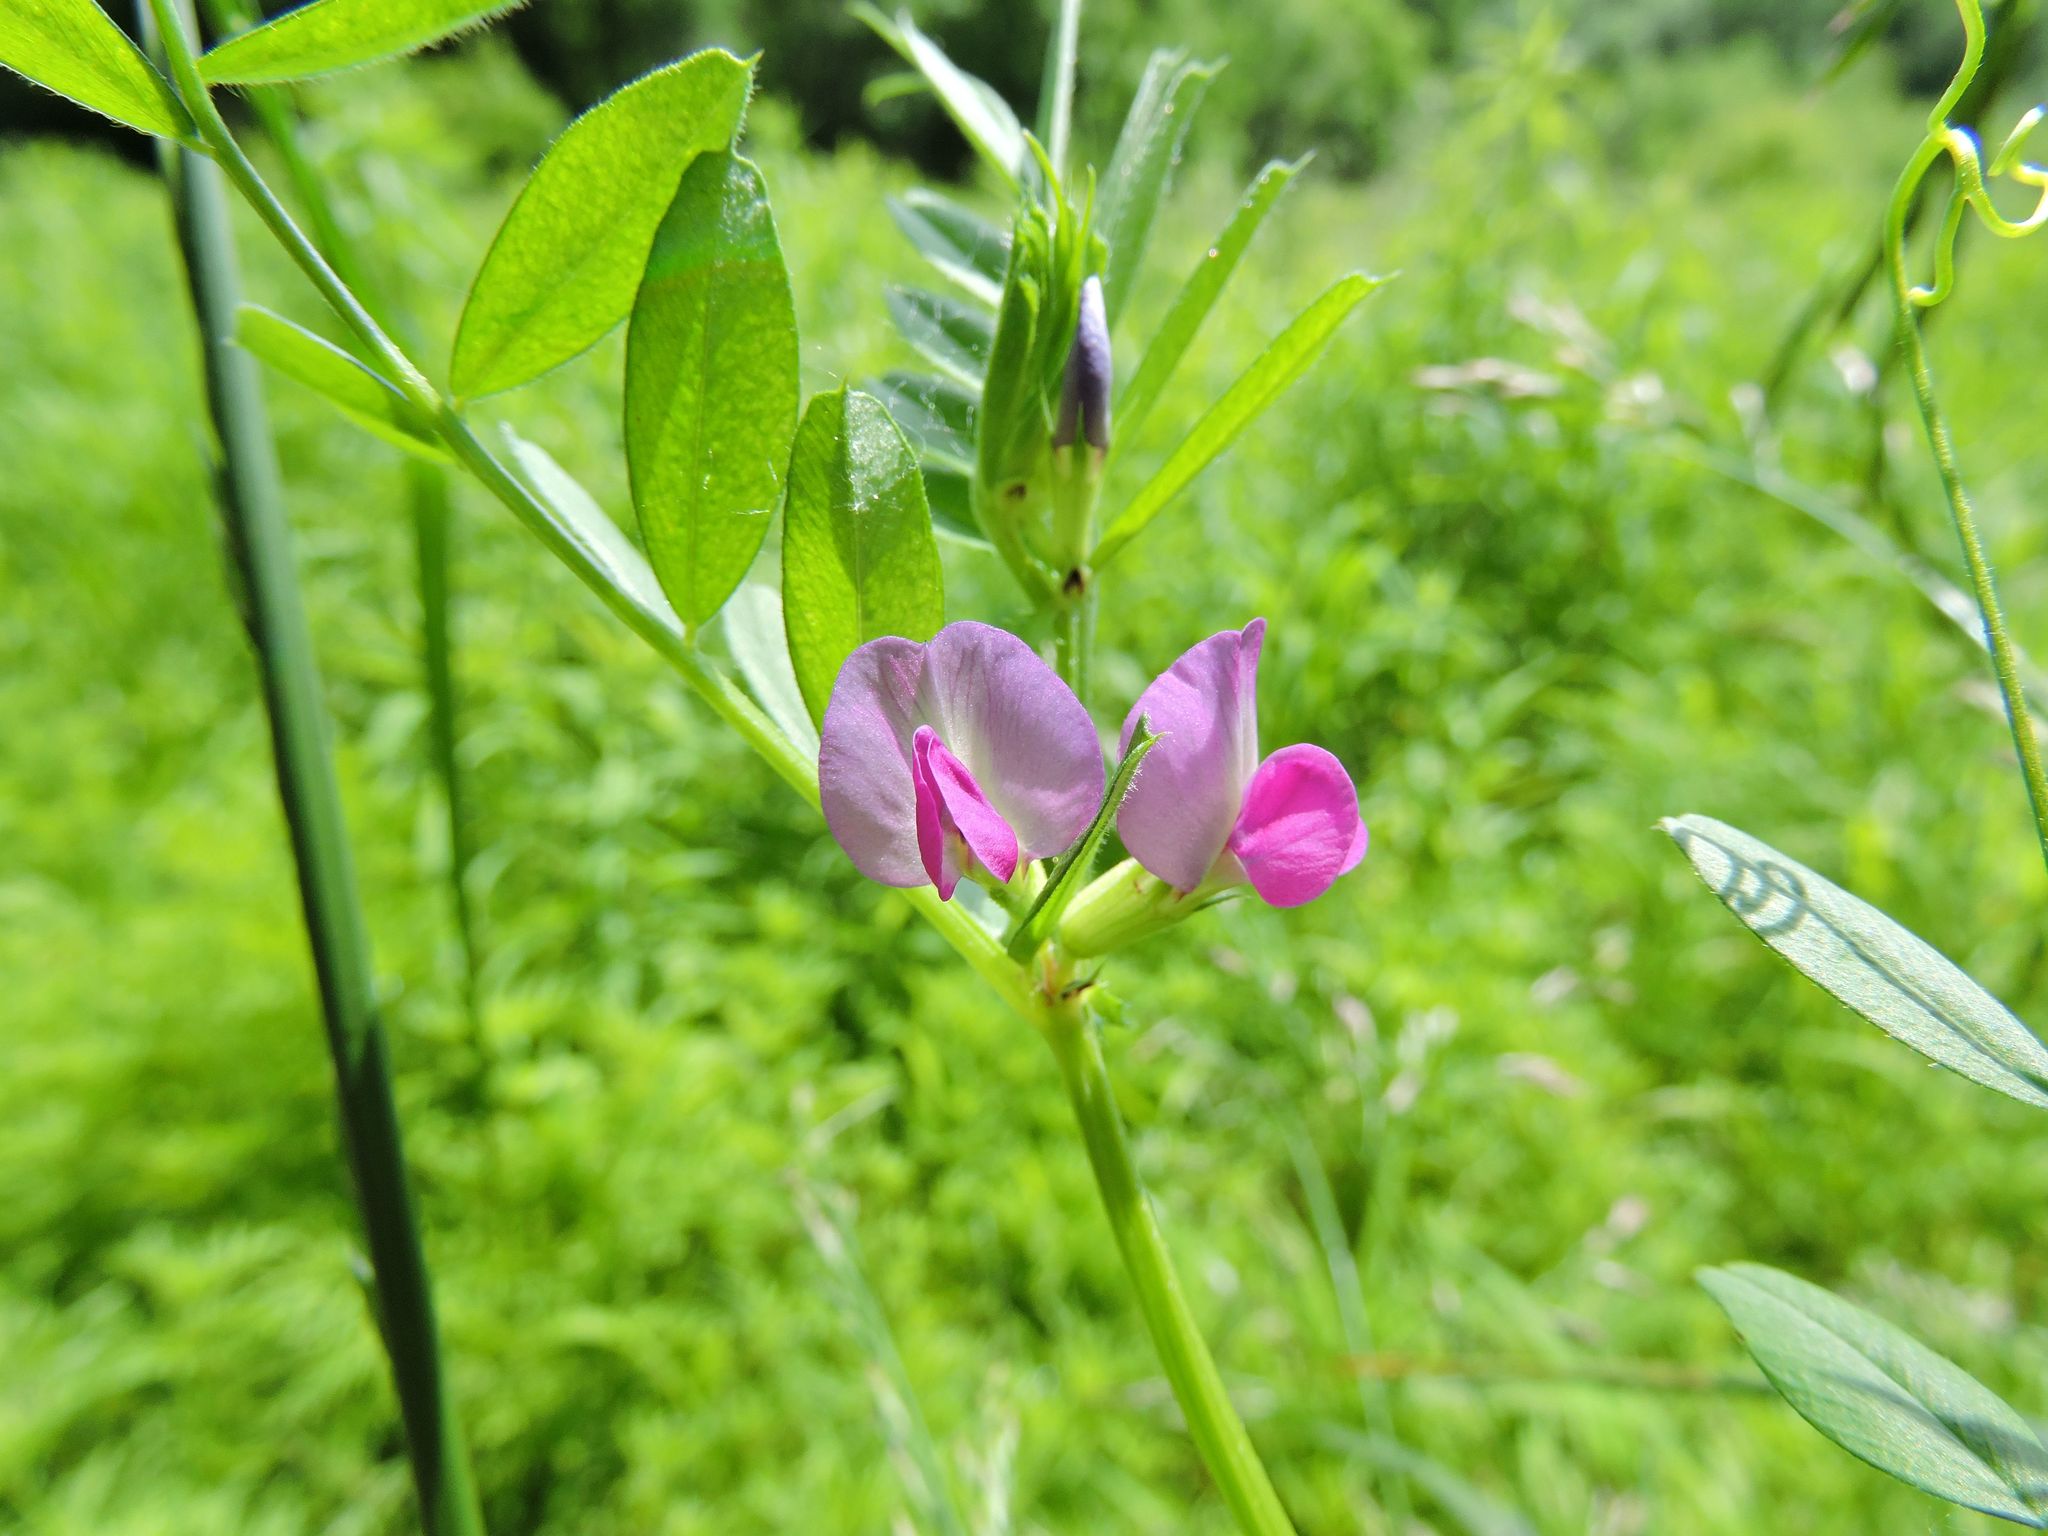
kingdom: Plantae
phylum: Tracheophyta
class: Magnoliopsida
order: Fabales
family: Fabaceae
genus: Vicia
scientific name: Vicia sativa
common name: Garden vetch
